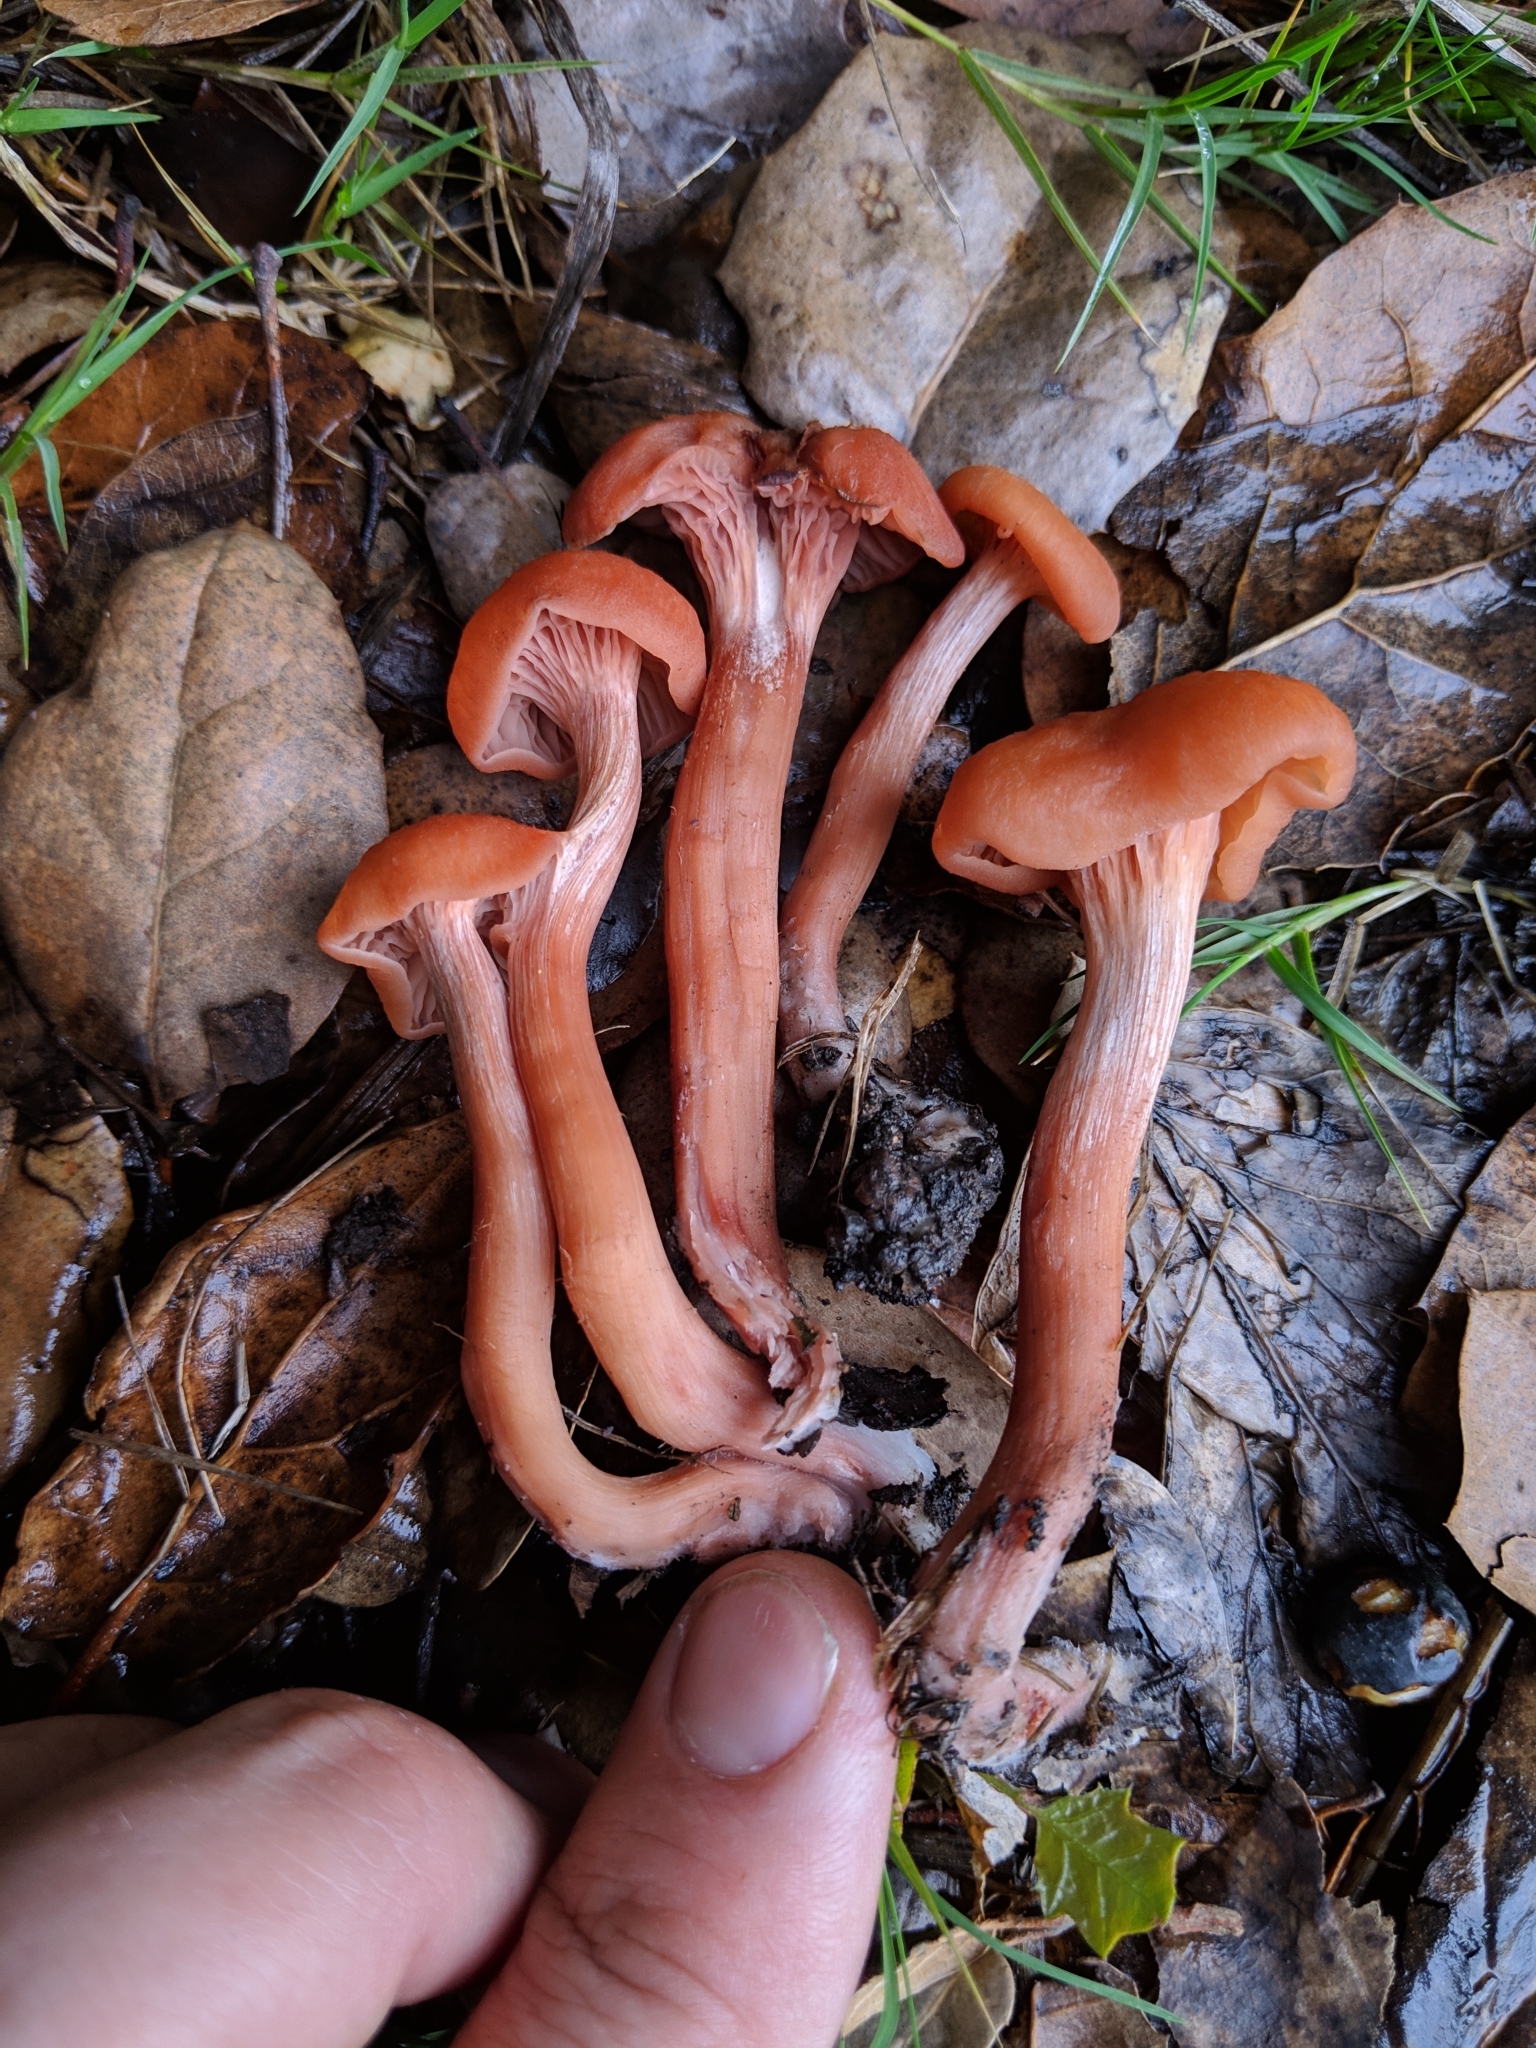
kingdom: Fungi
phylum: Basidiomycota
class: Agaricomycetes
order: Agaricales
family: Hydnangiaceae
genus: Laccaria
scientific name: Laccaria laccata
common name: Deceiver
